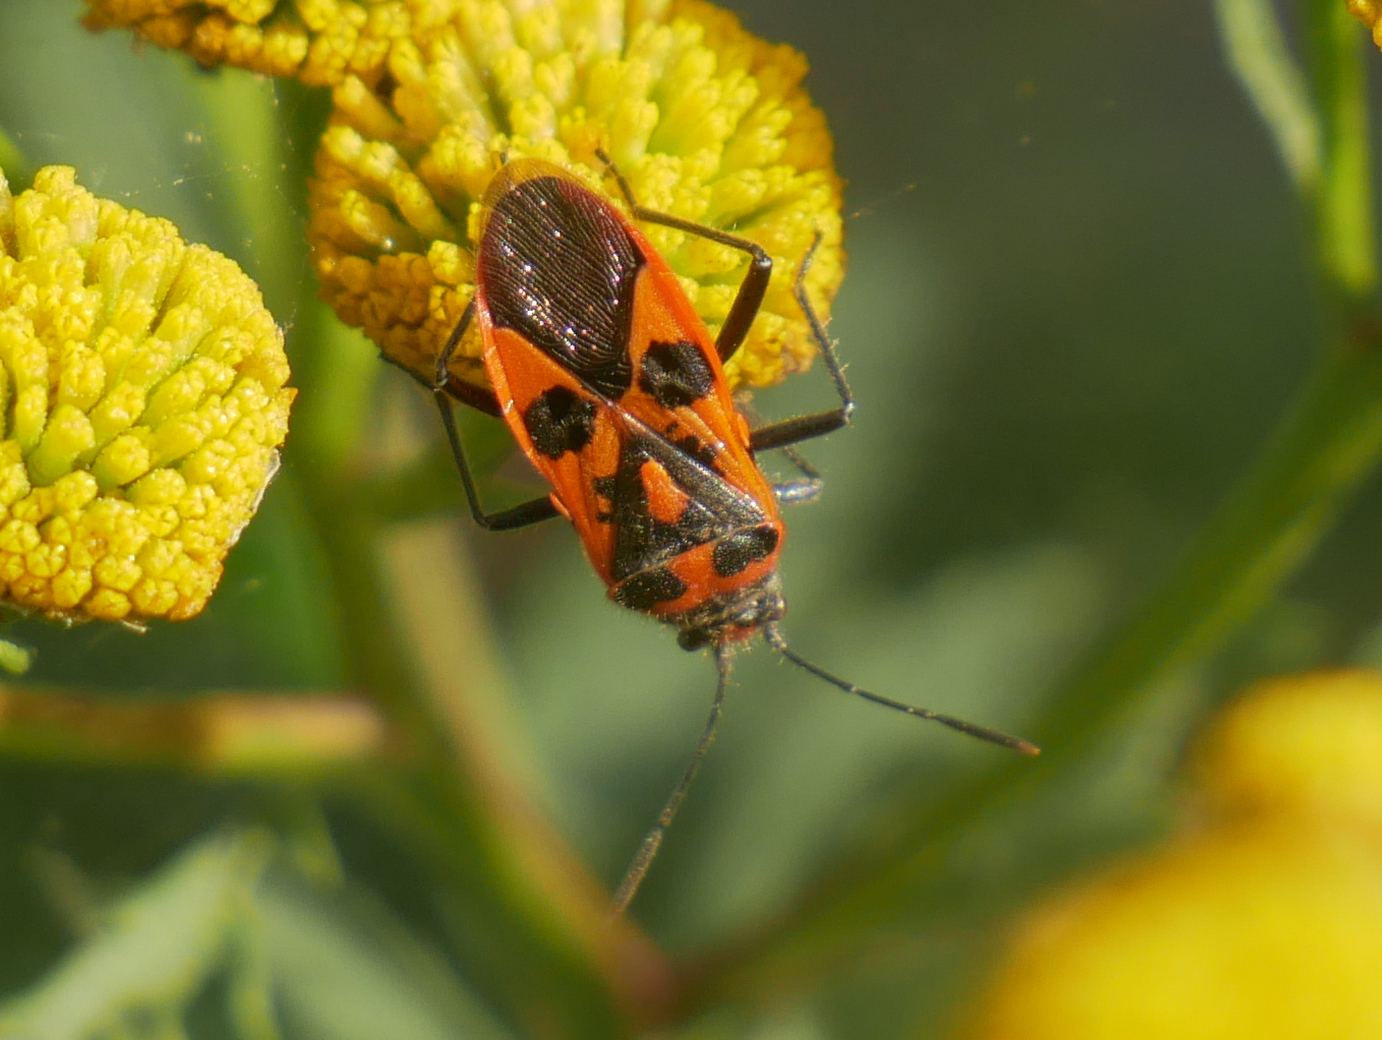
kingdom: Animalia
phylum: Arthropoda
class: Insecta
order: Hemiptera
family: Rhopalidae
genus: Corizus
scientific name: Corizus hyoscyami
